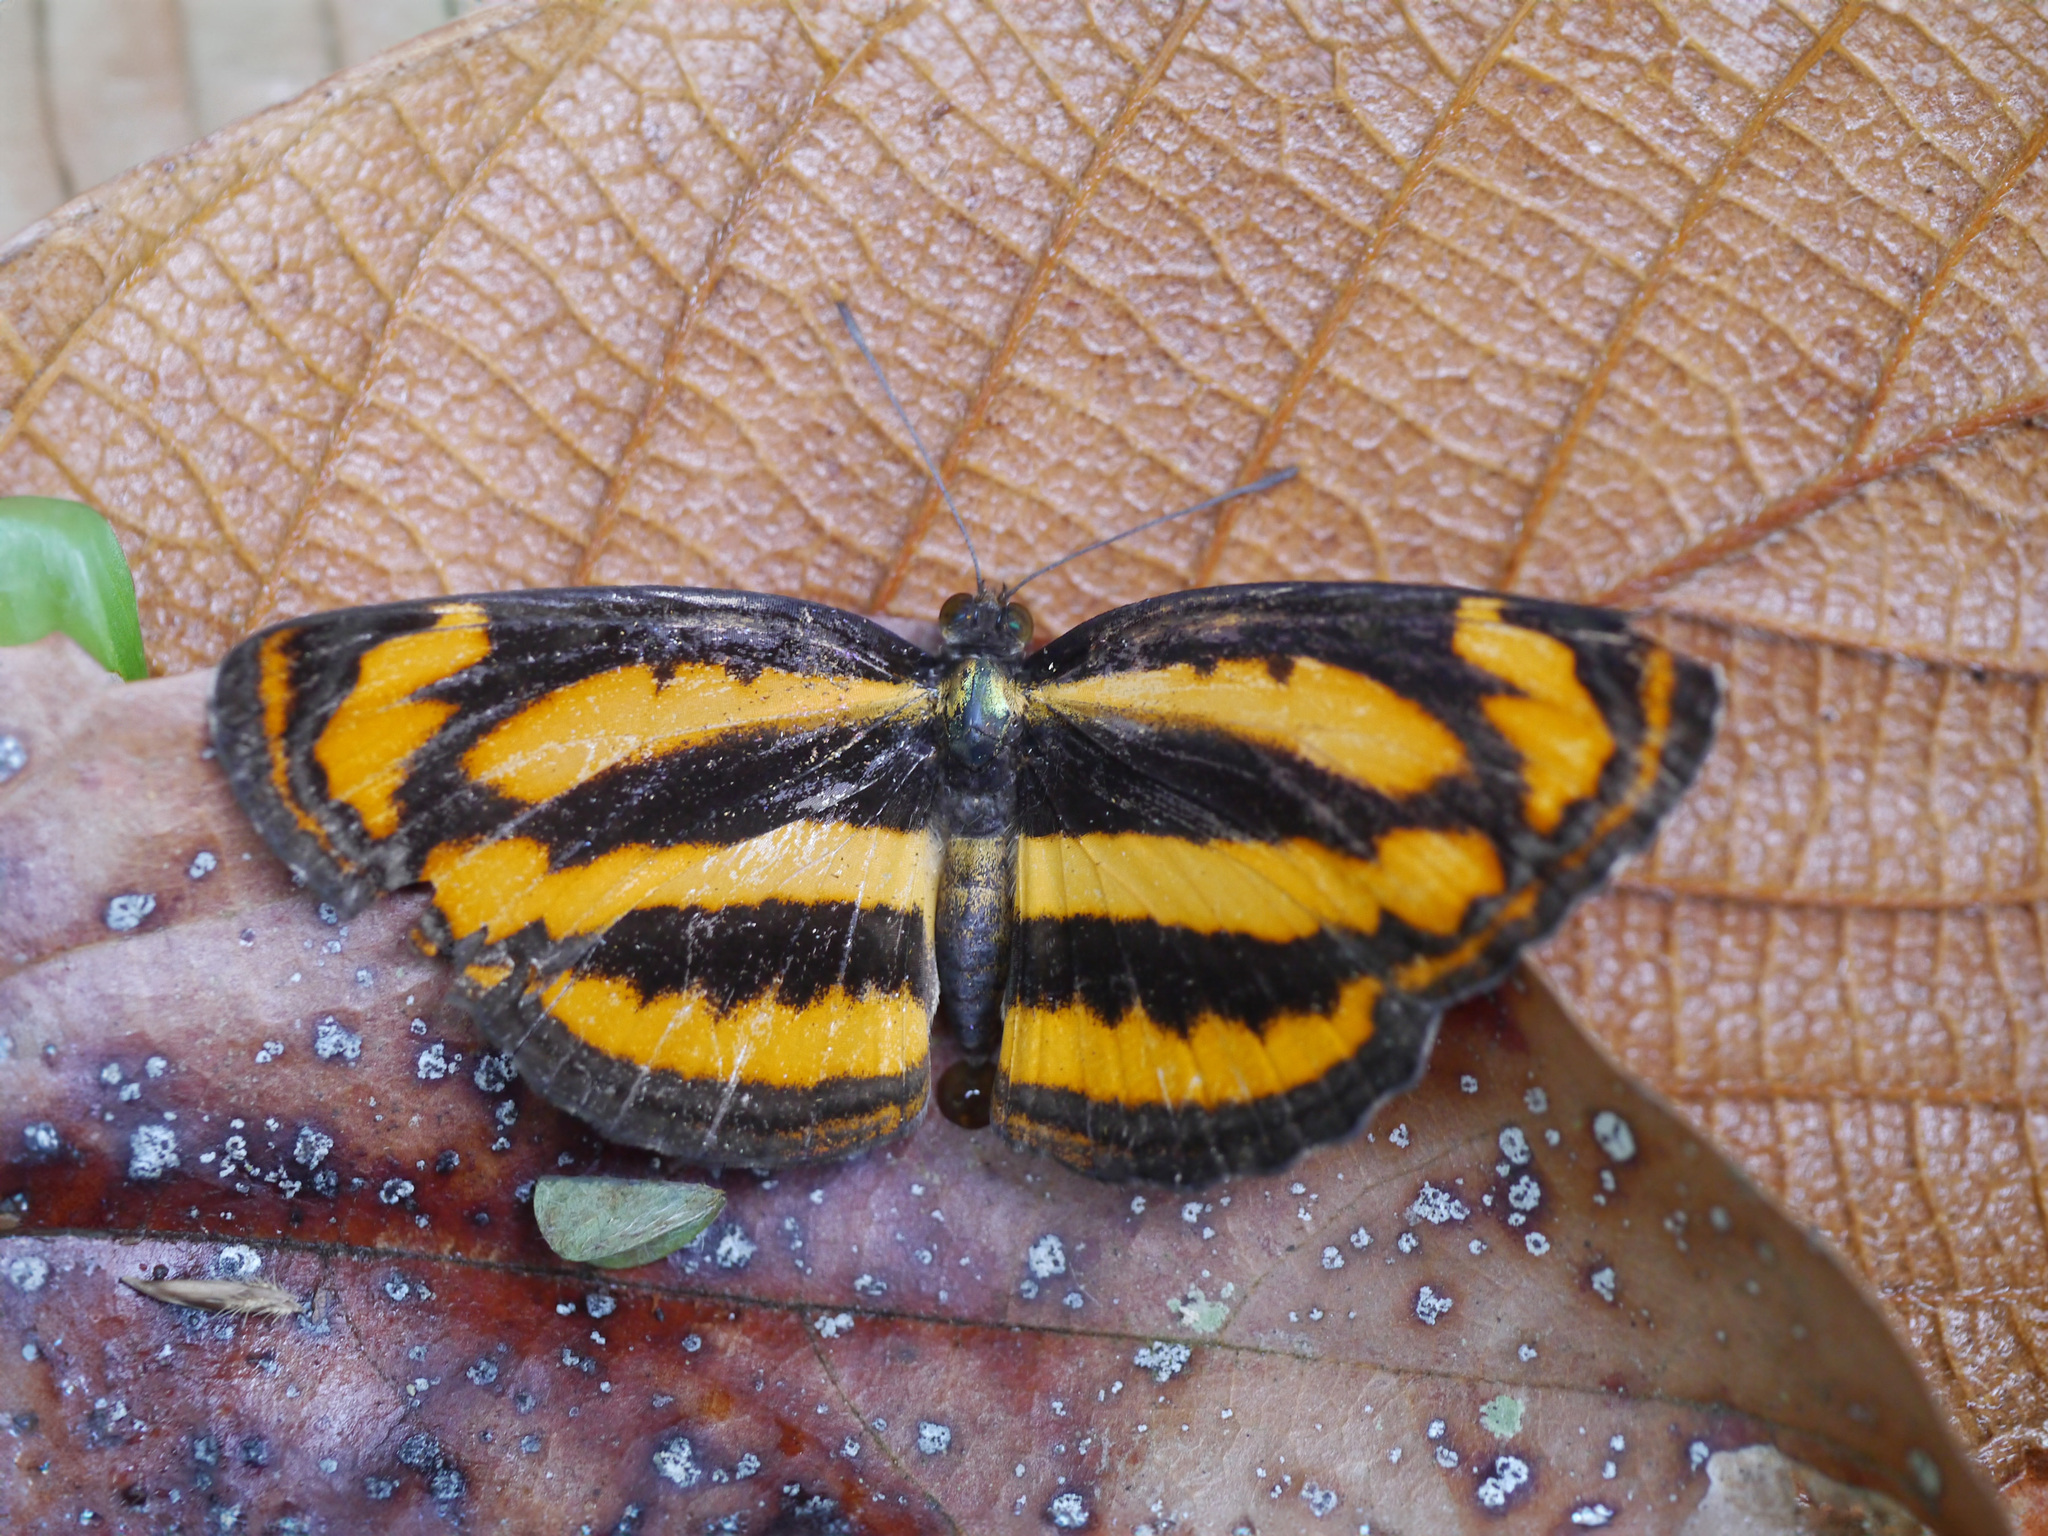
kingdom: Animalia
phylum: Arthropoda
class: Insecta
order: Lepidoptera
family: Nymphalidae
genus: Pantoporia
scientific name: Pantoporia hordonia
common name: Common lascar
